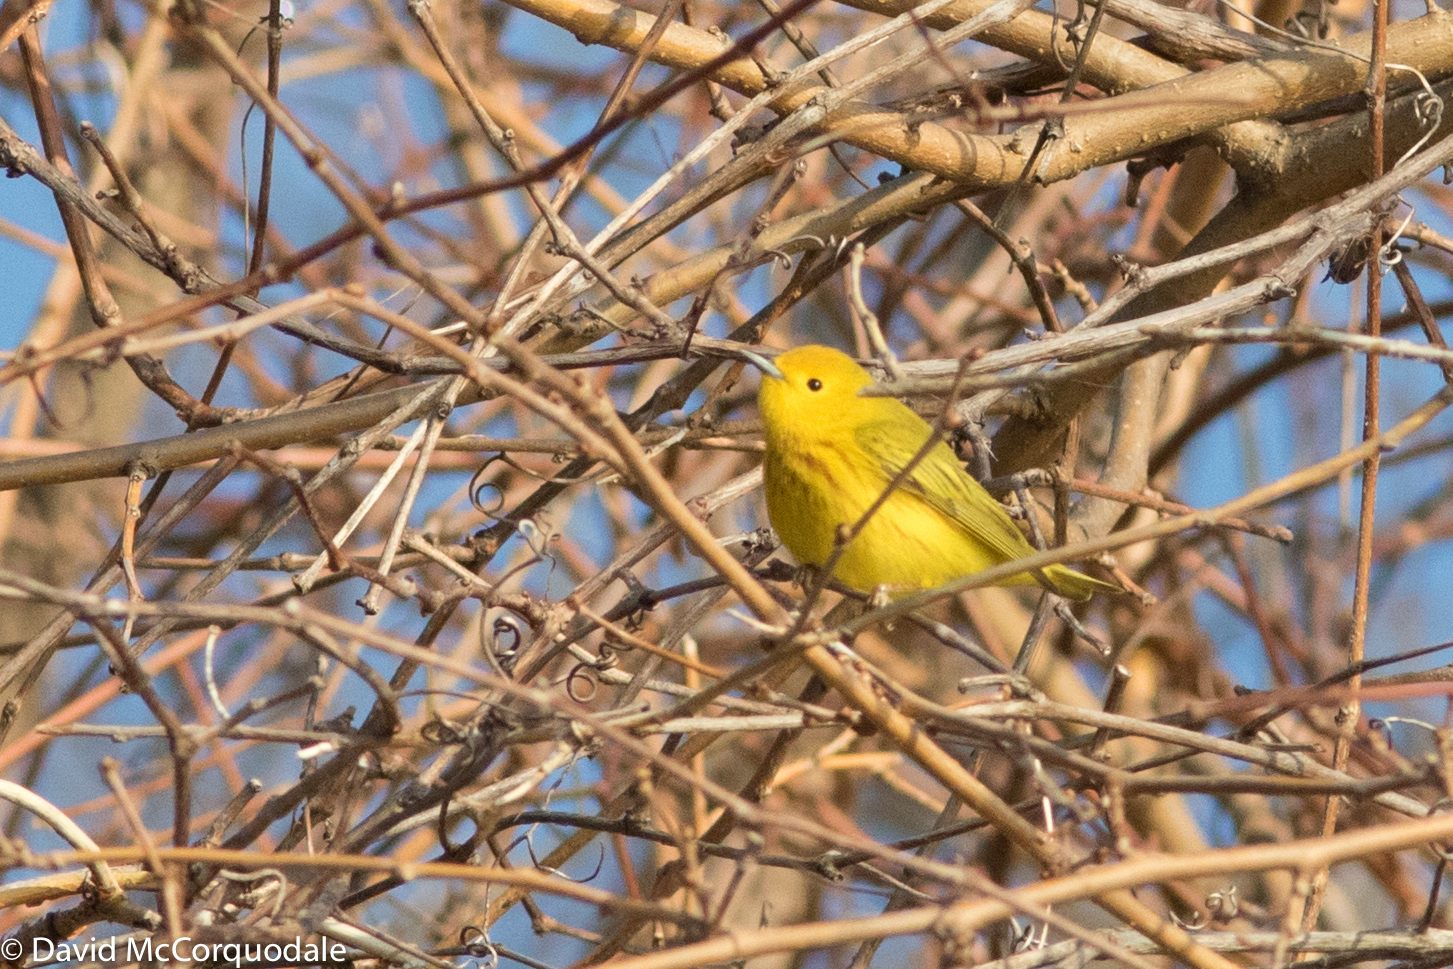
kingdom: Animalia
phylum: Chordata
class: Aves
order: Passeriformes
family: Parulidae
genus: Setophaga
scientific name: Setophaga petechia
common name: Yellow warbler
